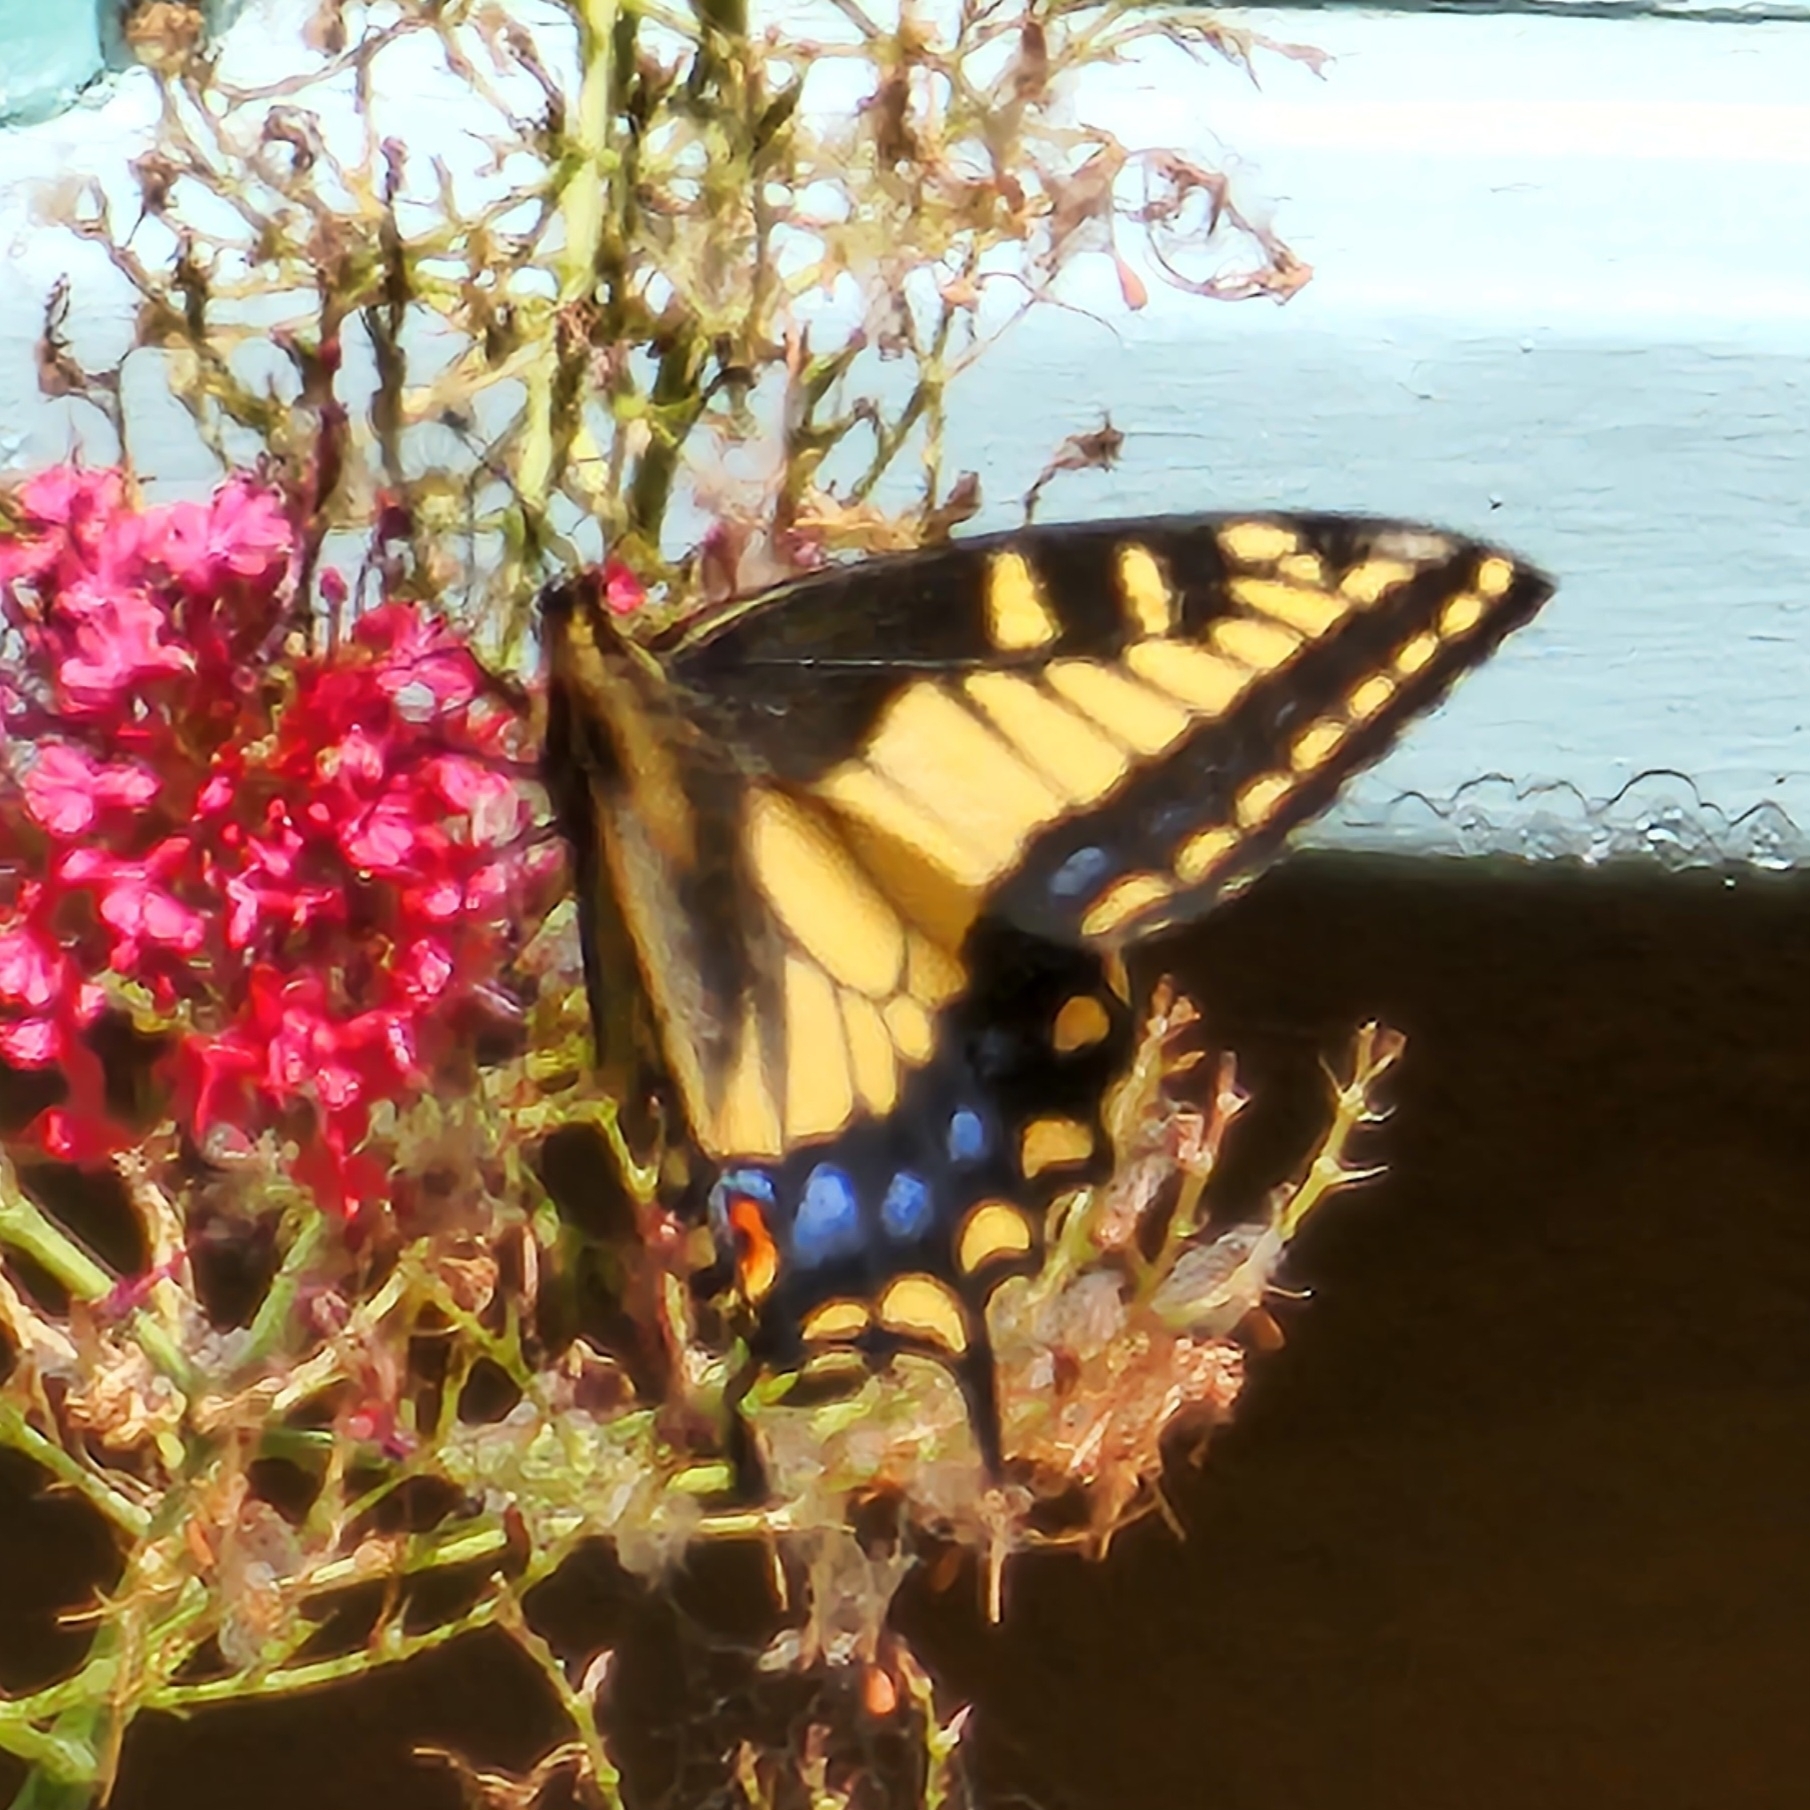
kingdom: Animalia
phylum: Arthropoda
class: Insecta
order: Lepidoptera
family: Papilionidae
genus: Papilio
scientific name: Papilio zelicaon
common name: Anise swallowtail
